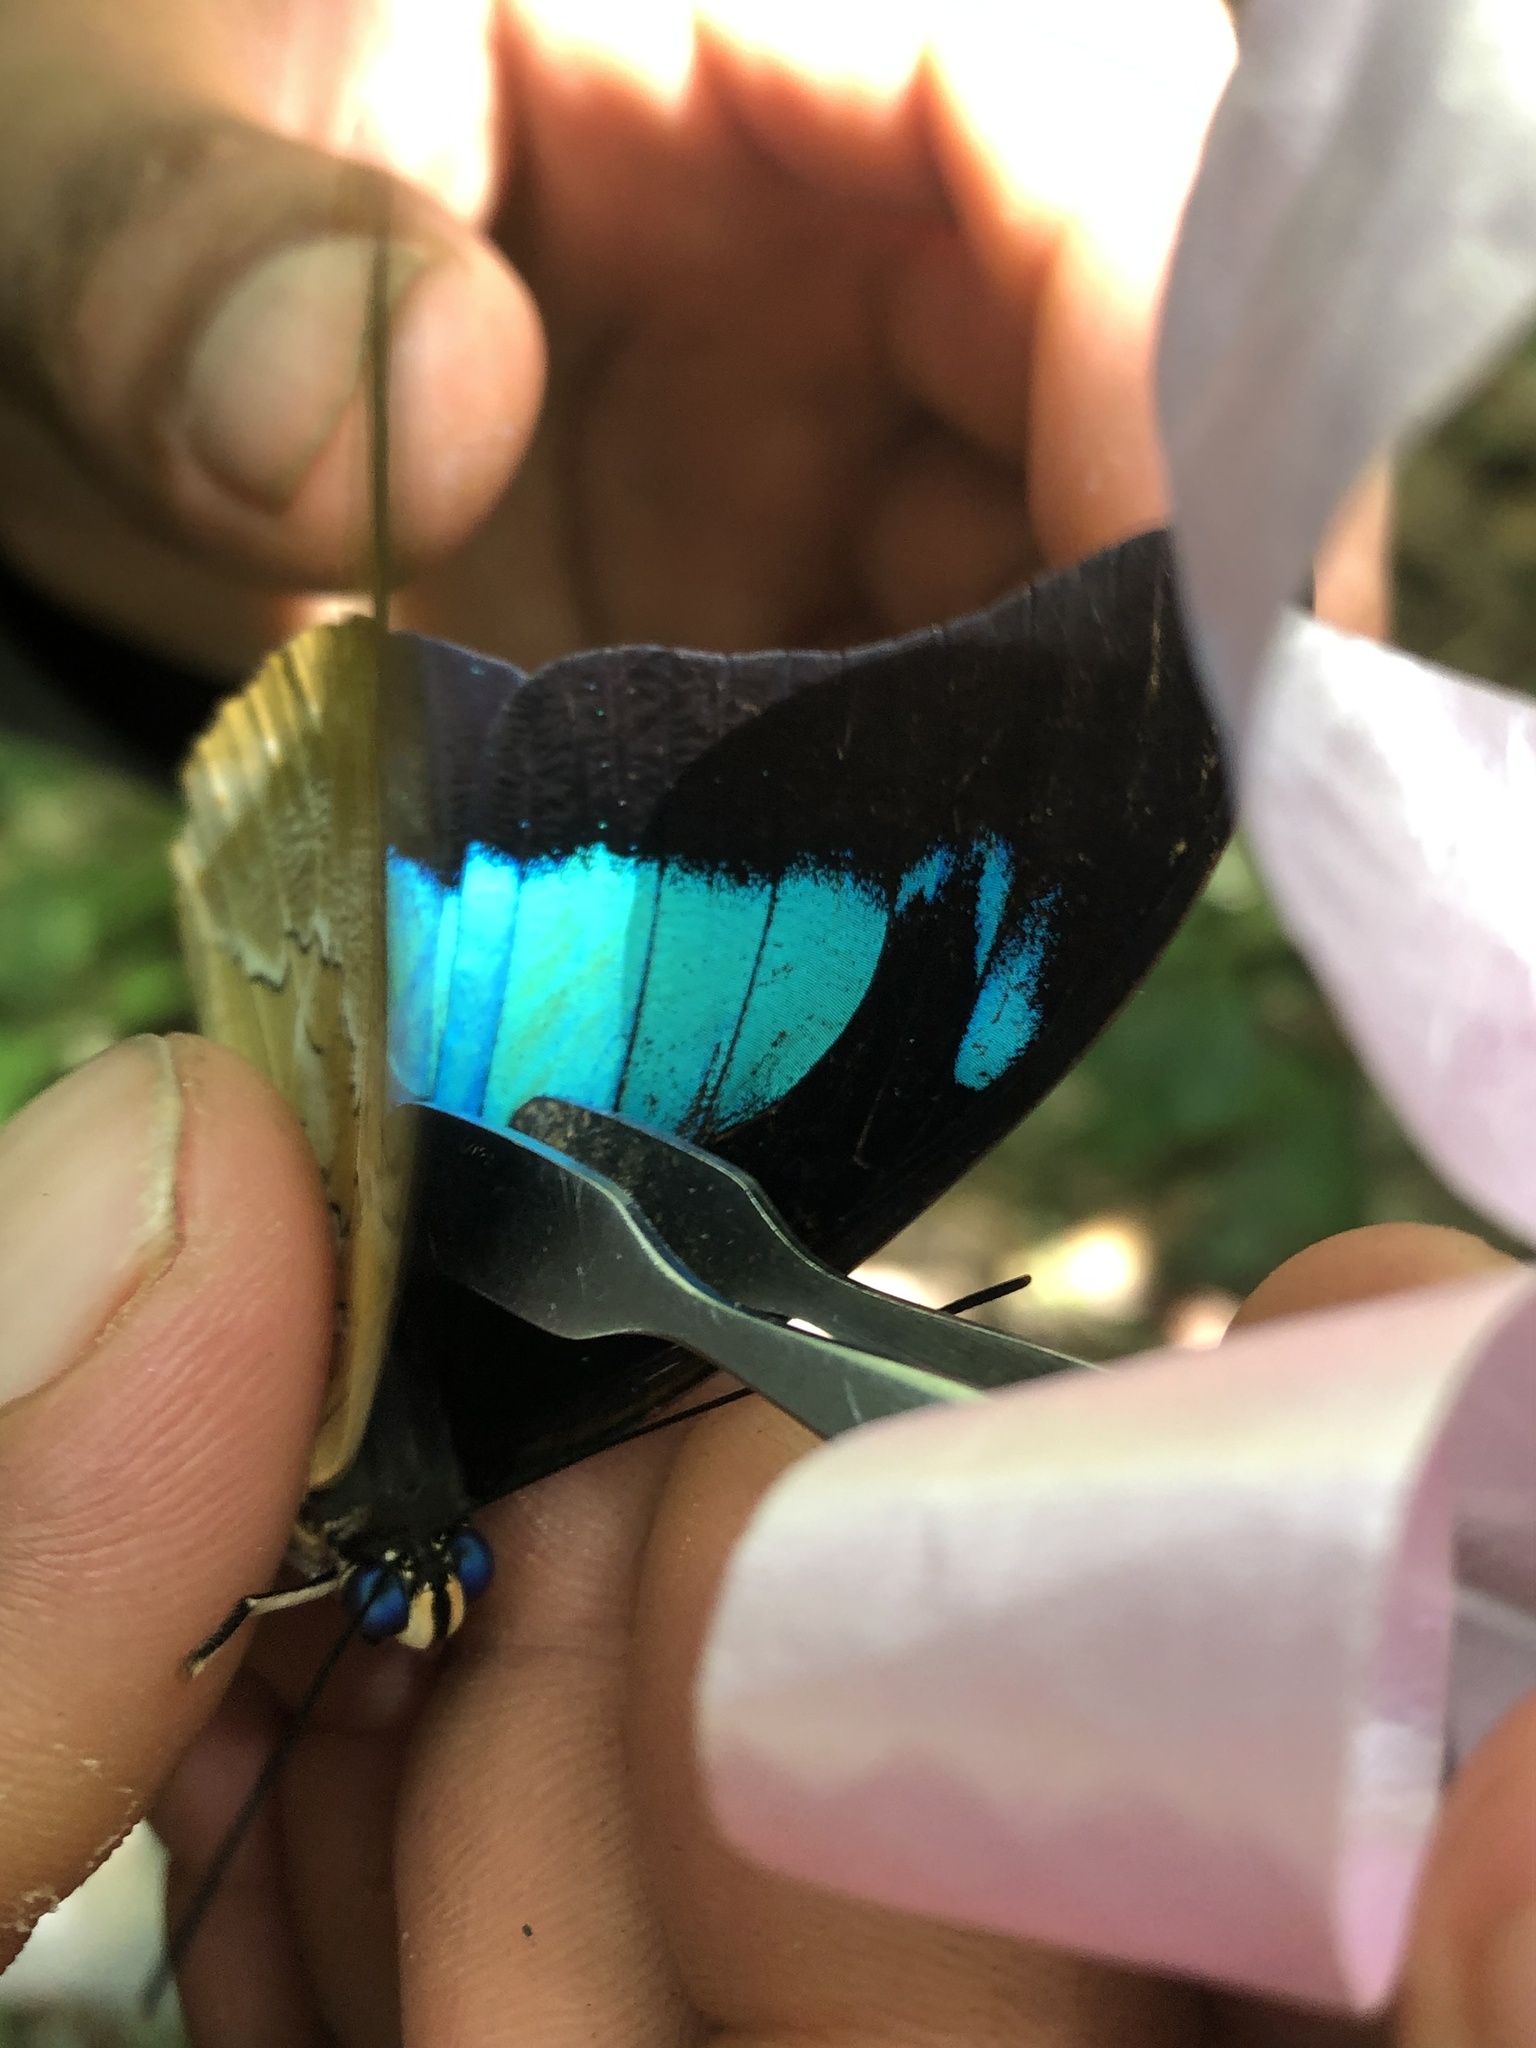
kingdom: Animalia
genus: Mesoprepona
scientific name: Mesoprepona
